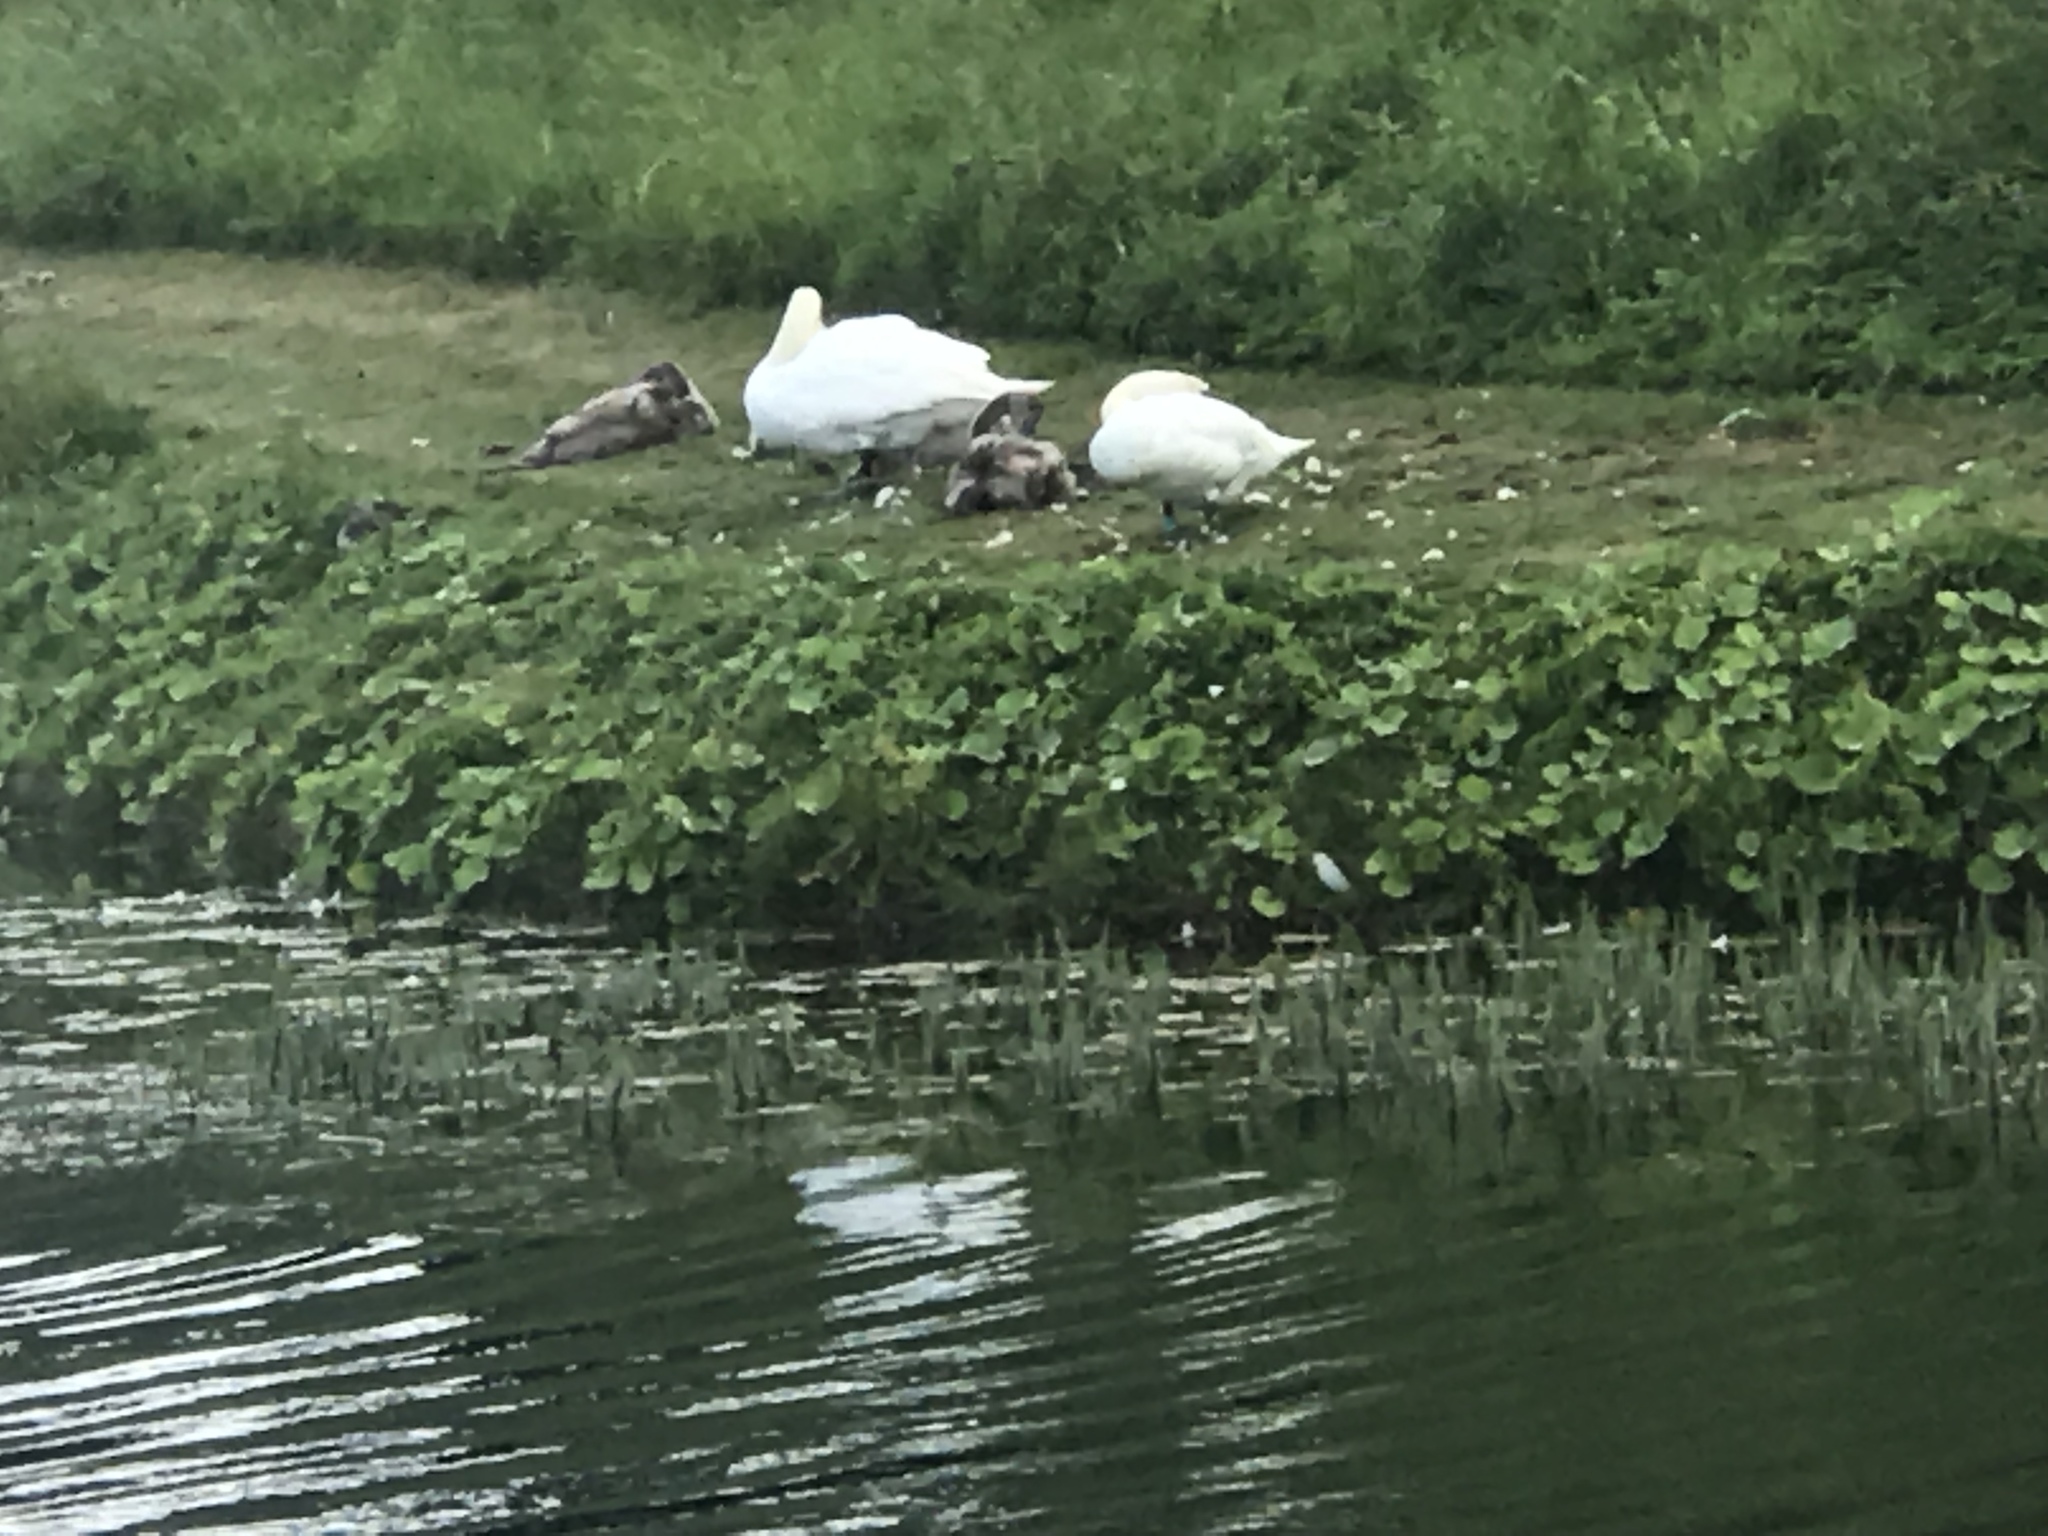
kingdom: Animalia
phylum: Chordata
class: Aves
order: Anseriformes
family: Anatidae
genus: Cygnus
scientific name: Cygnus olor
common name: Mute swan
